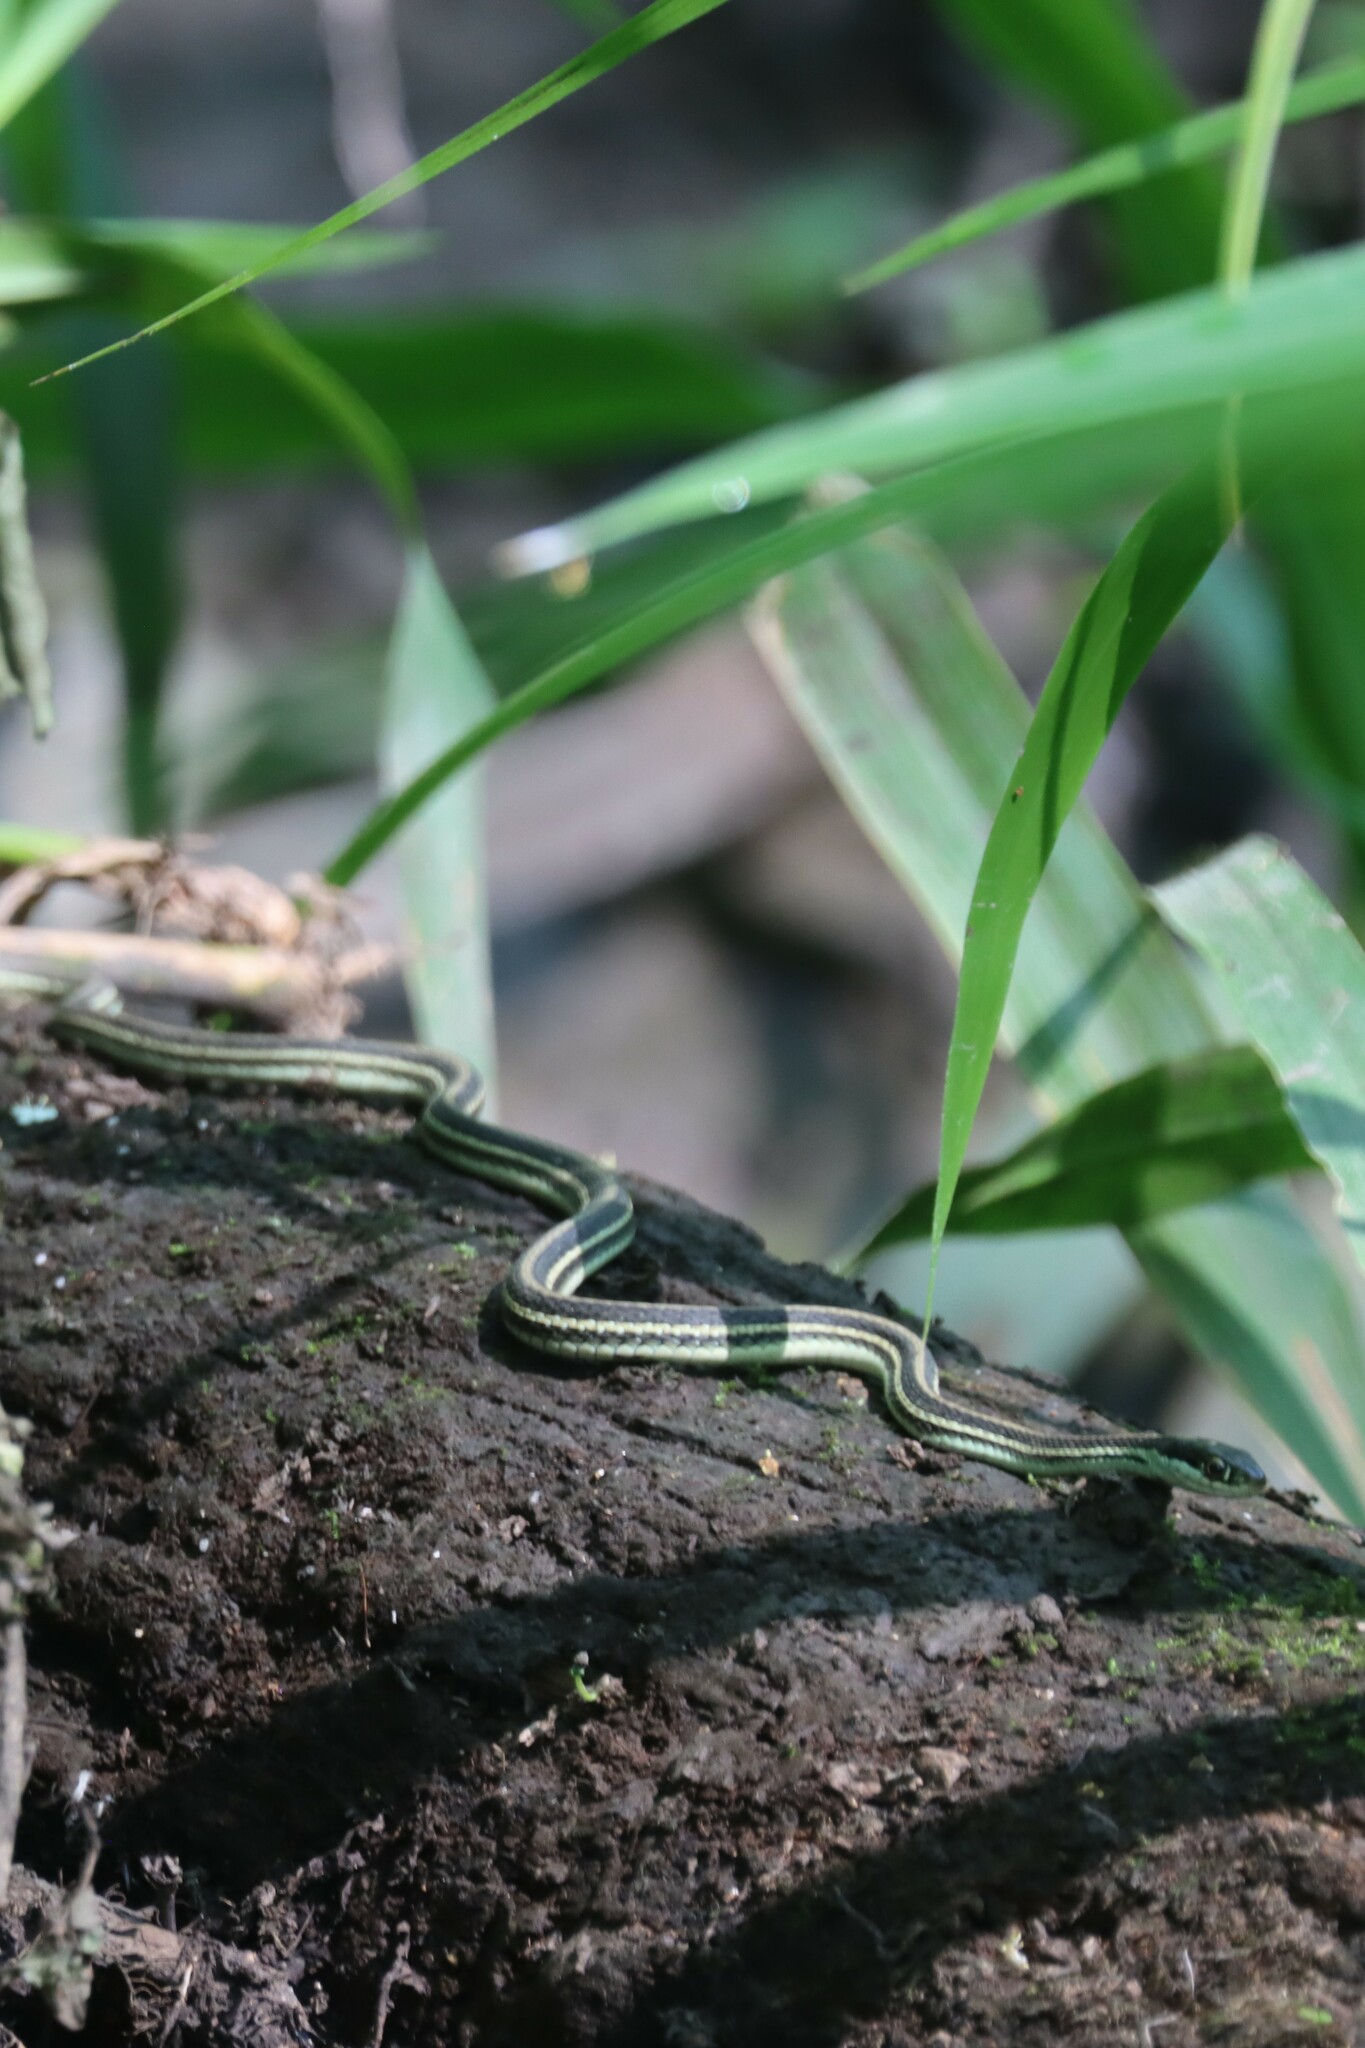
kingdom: Animalia
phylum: Chordata
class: Squamata
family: Colubridae
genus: Thamnophis
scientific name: Thamnophis proximus
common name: Western ribbon snake
